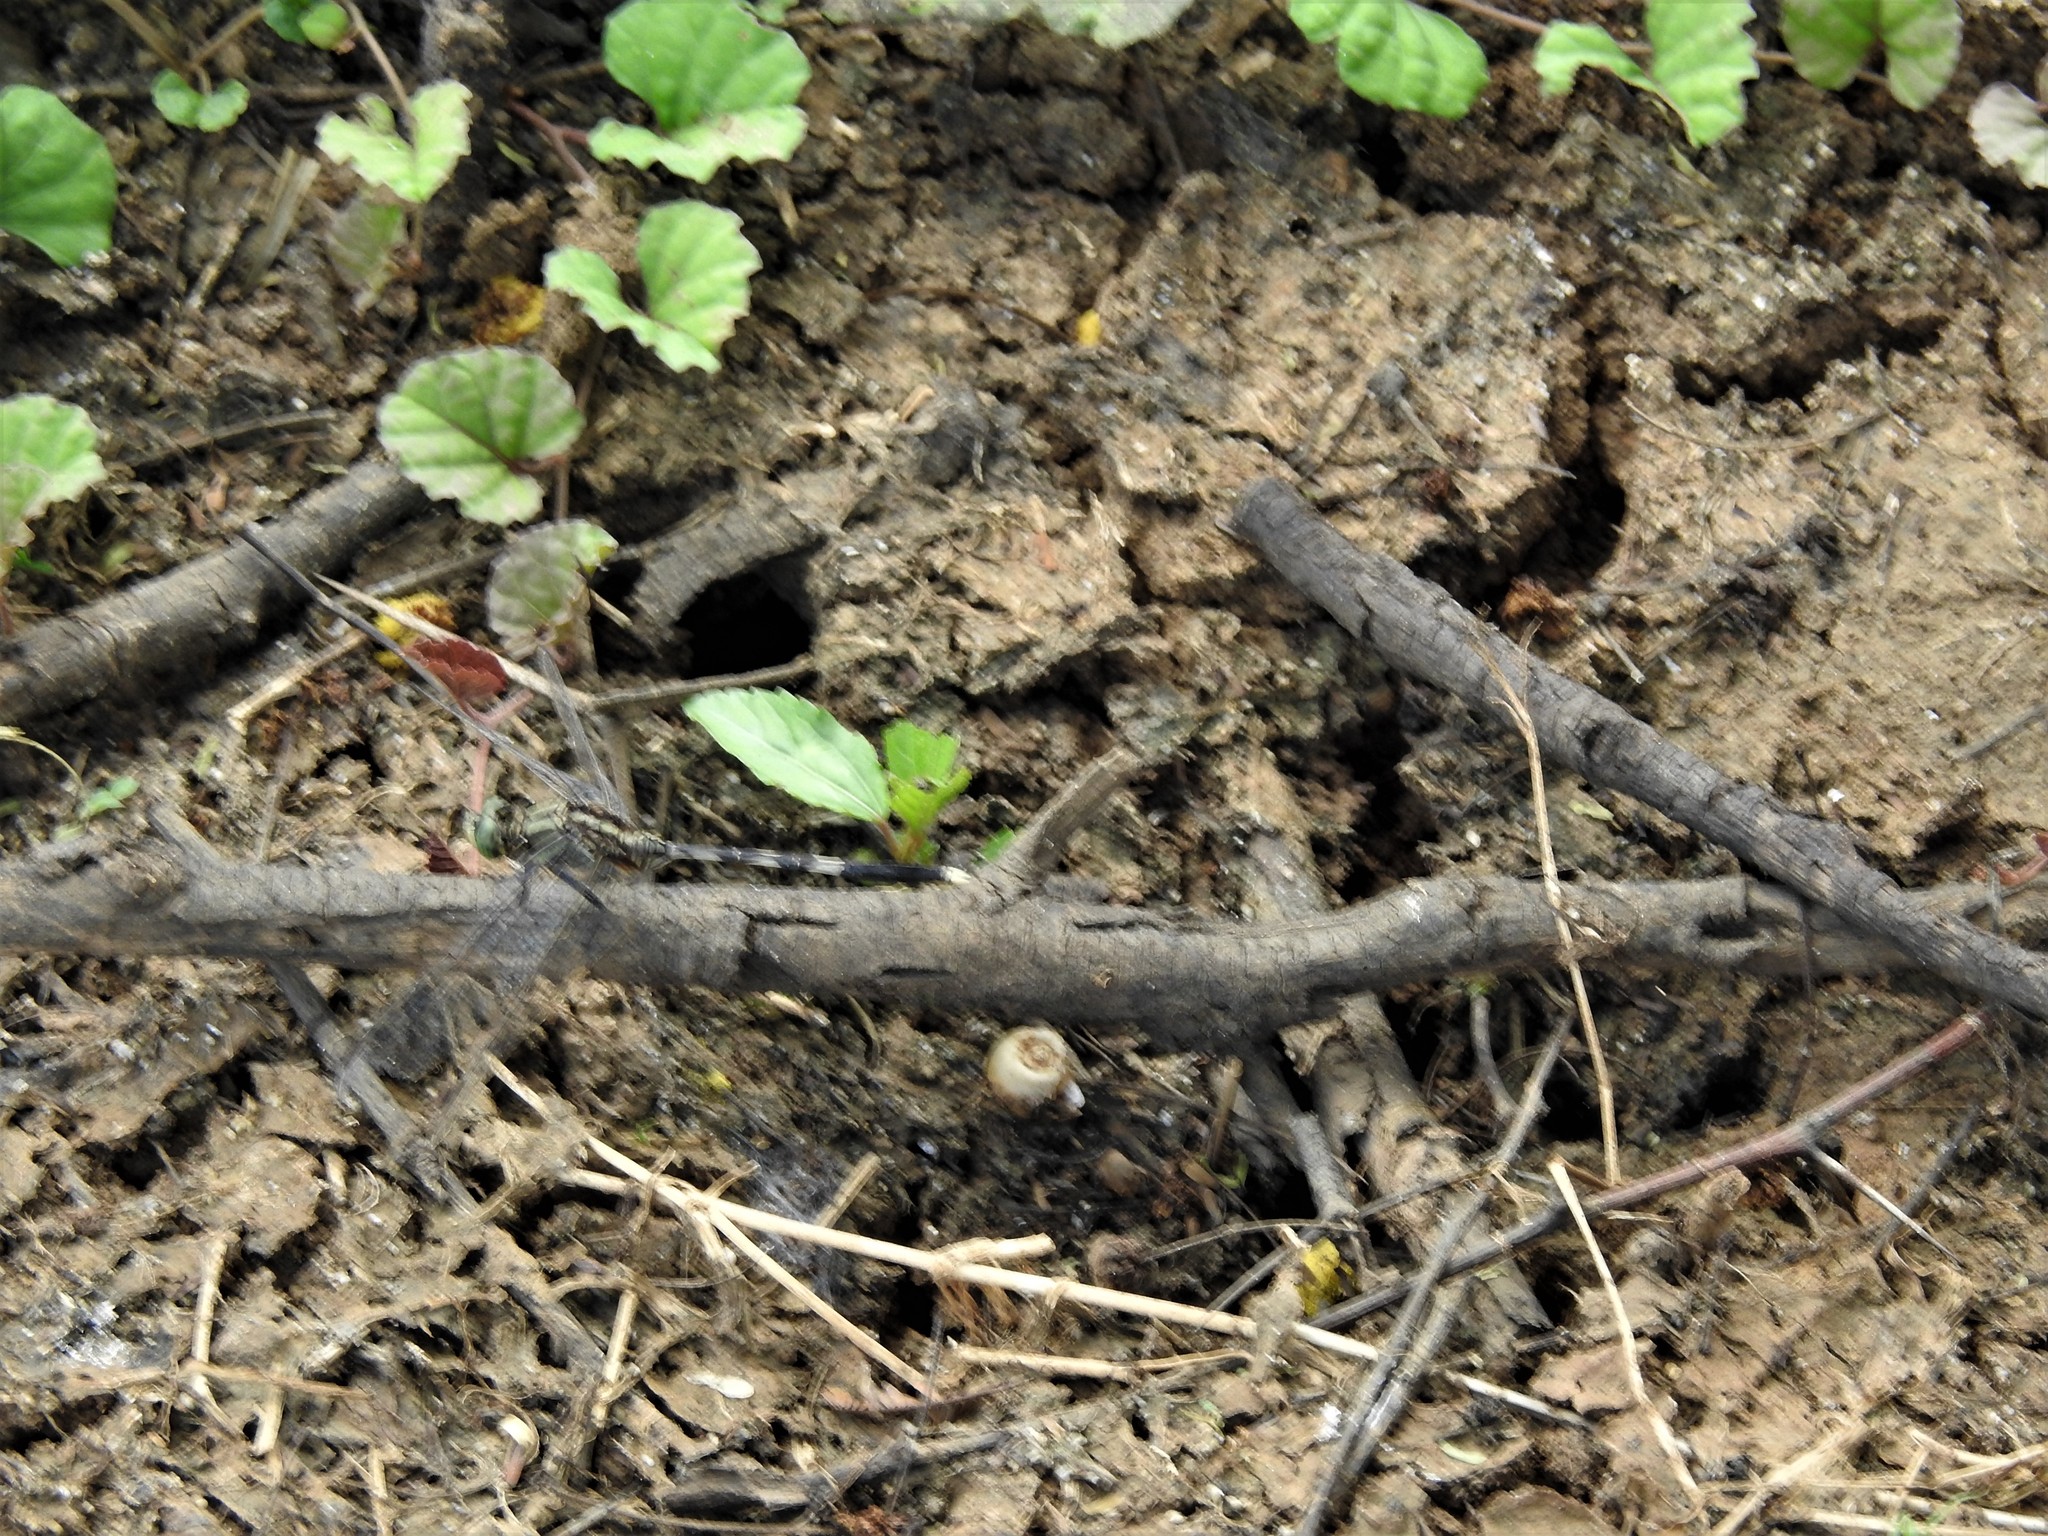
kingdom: Animalia
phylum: Arthropoda
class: Insecta
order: Odonata
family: Libellulidae
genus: Orthetrum
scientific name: Orthetrum sabina
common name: Slender skimmer
